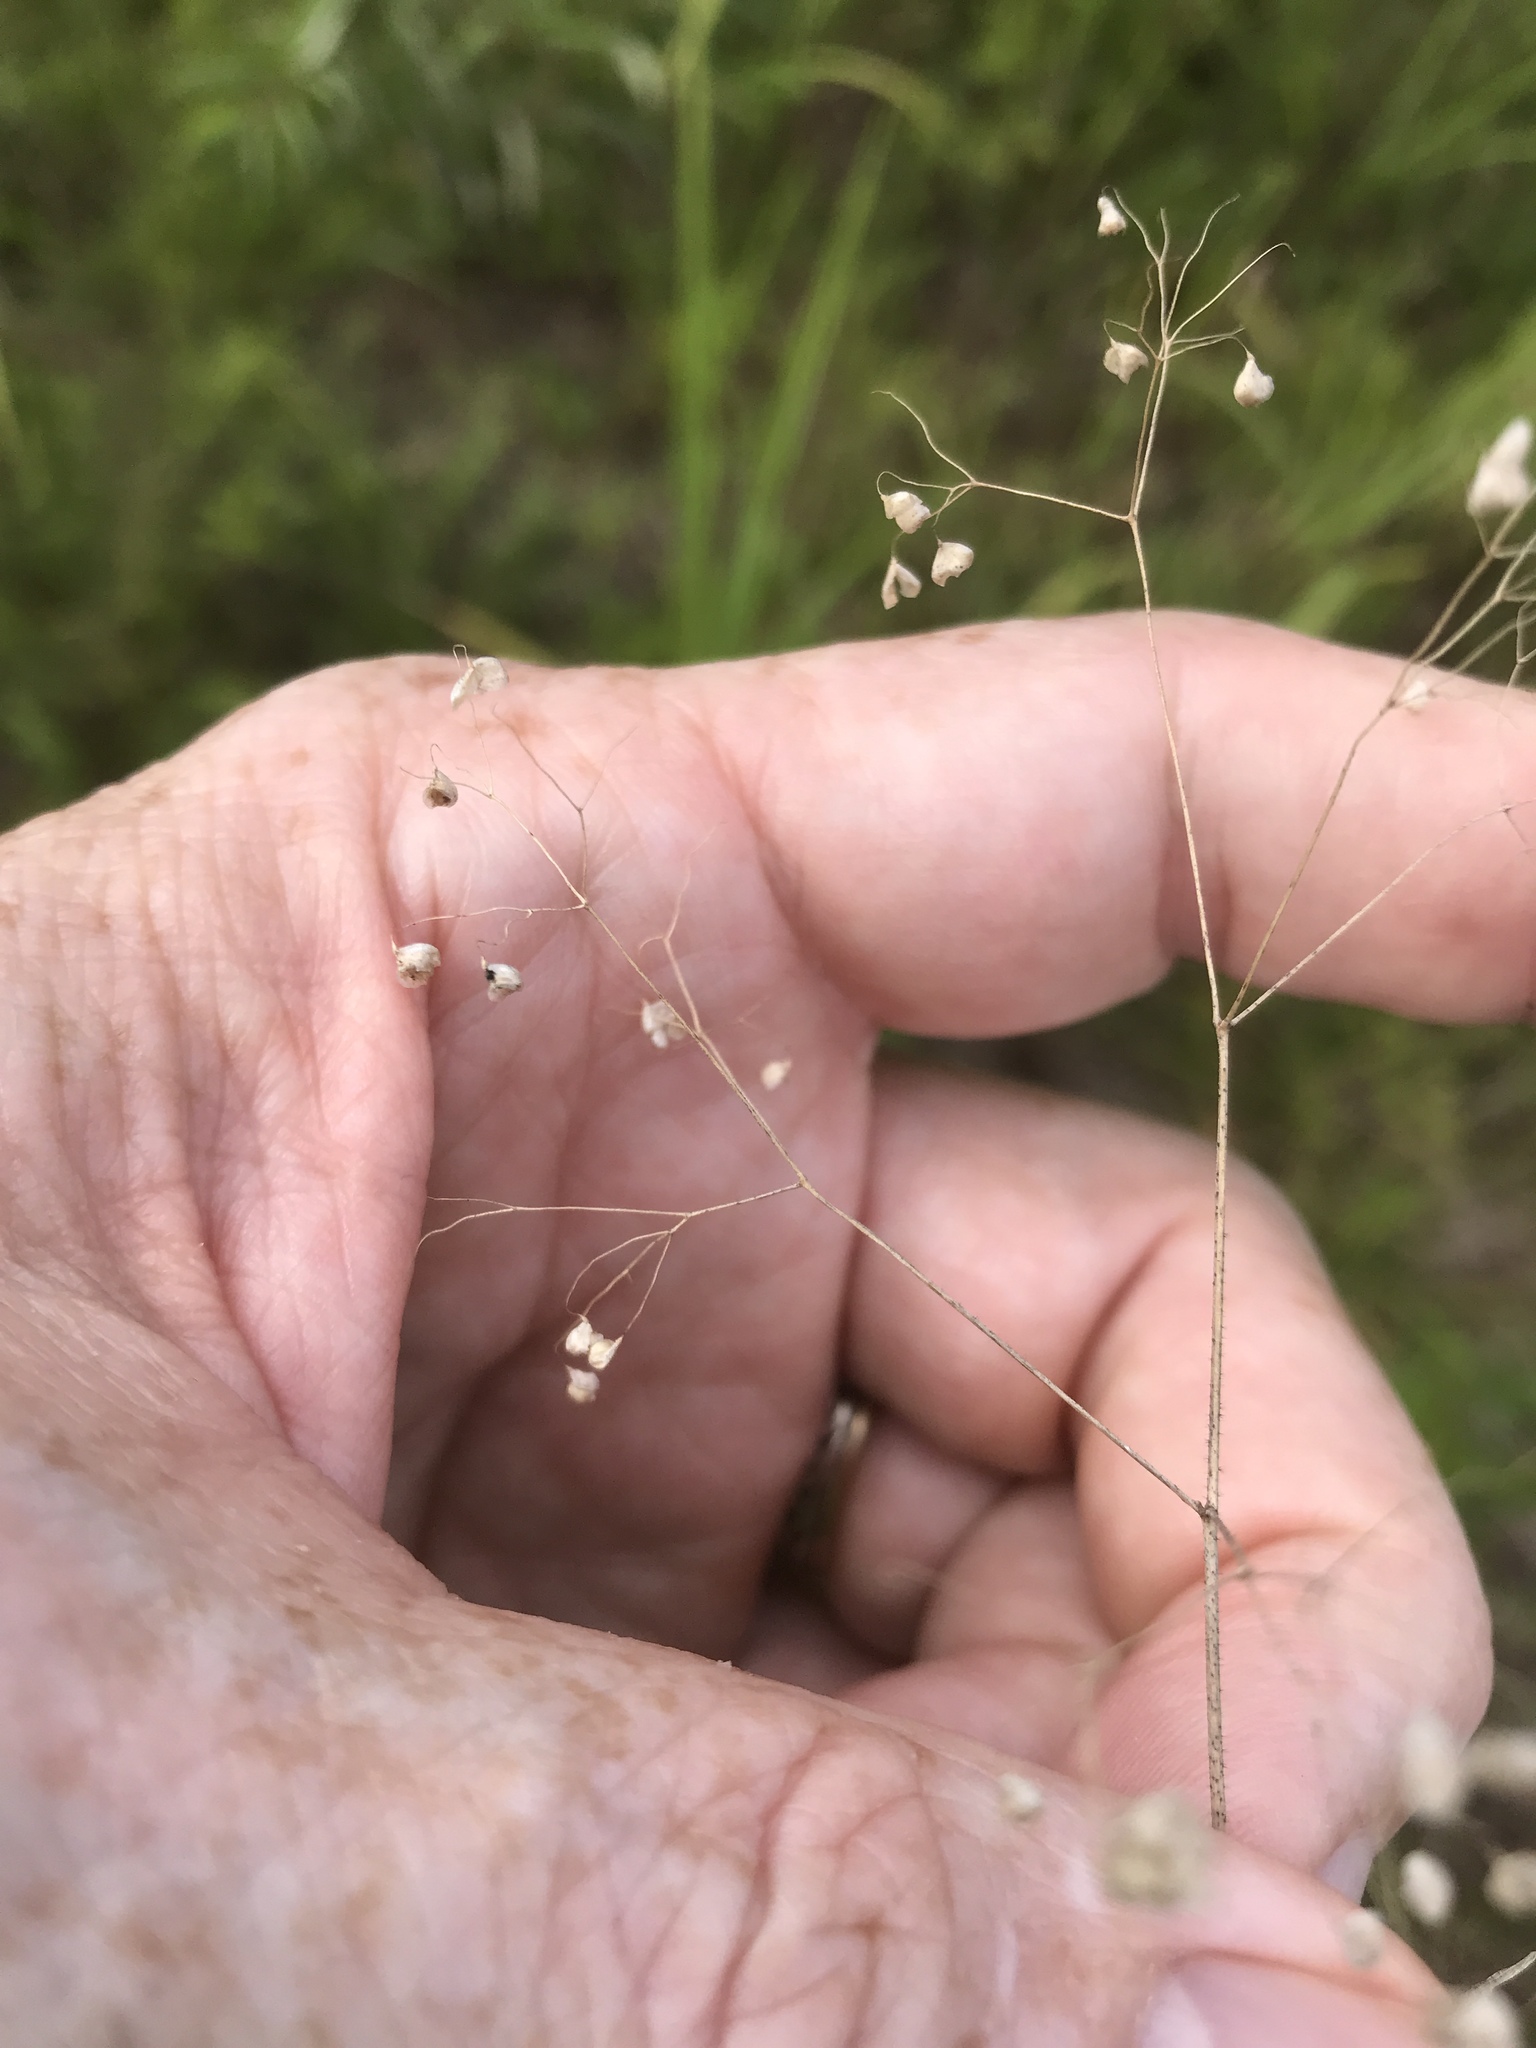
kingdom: Plantae
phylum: Tracheophyta
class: Liliopsida
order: Poales
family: Poaceae
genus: Briza
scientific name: Briza minor
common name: Lesser quaking-grass
